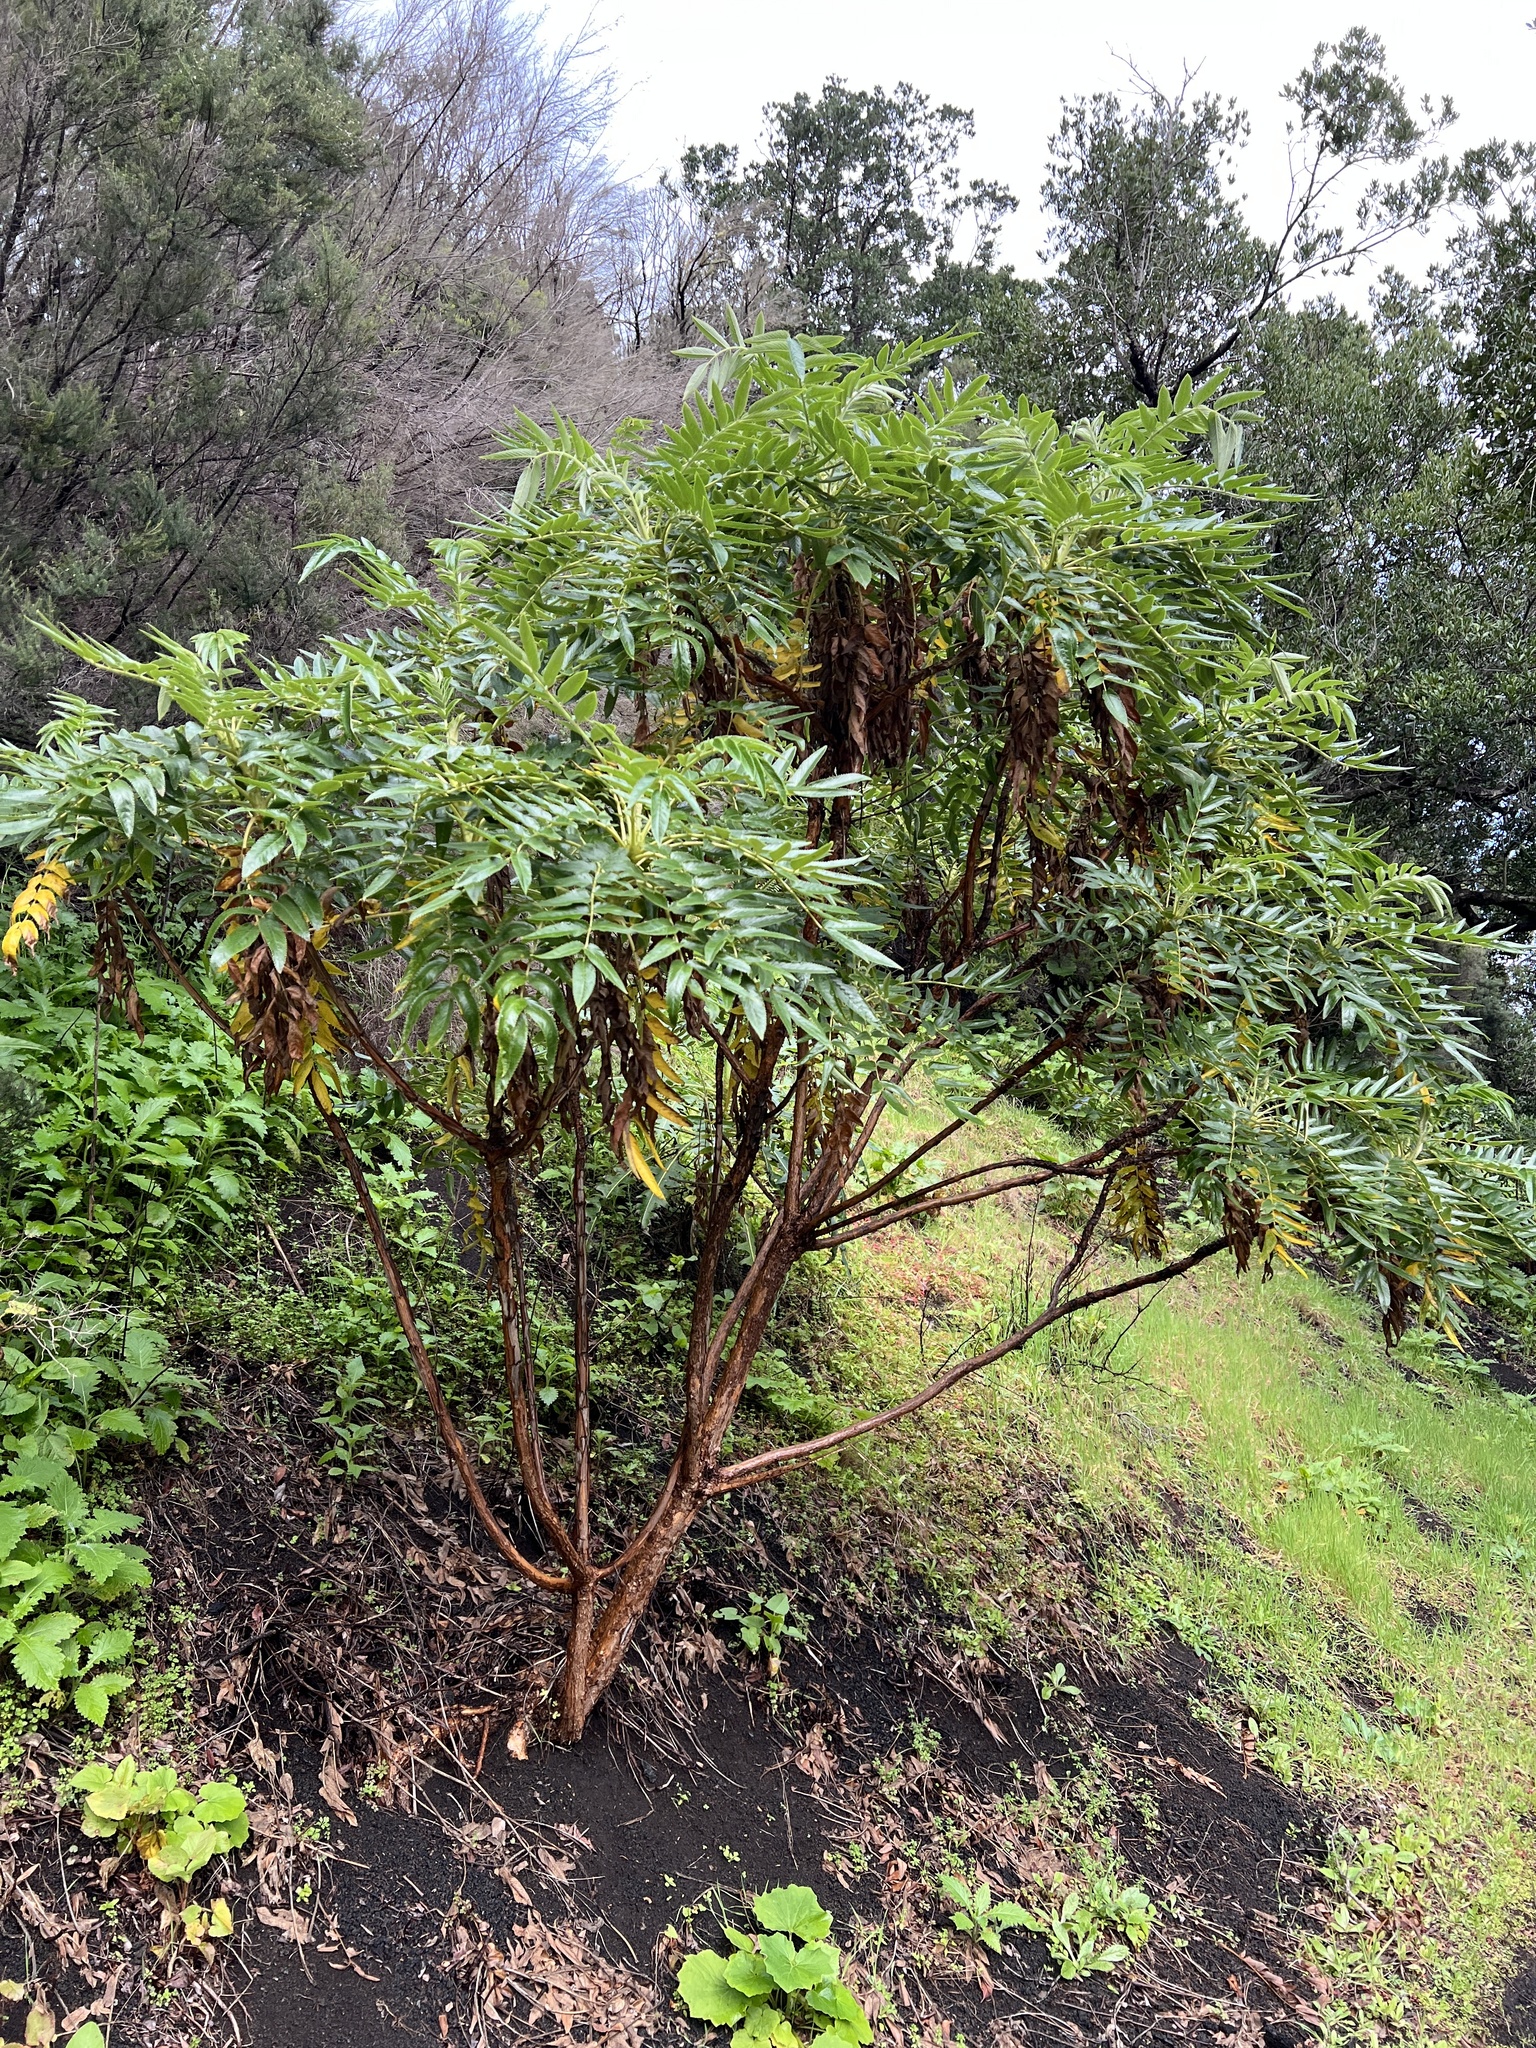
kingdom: Plantae
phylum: Tracheophyta
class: Magnoliopsida
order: Rosales
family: Rosaceae
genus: Bencomia
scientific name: Bencomia sphaerocarpa
